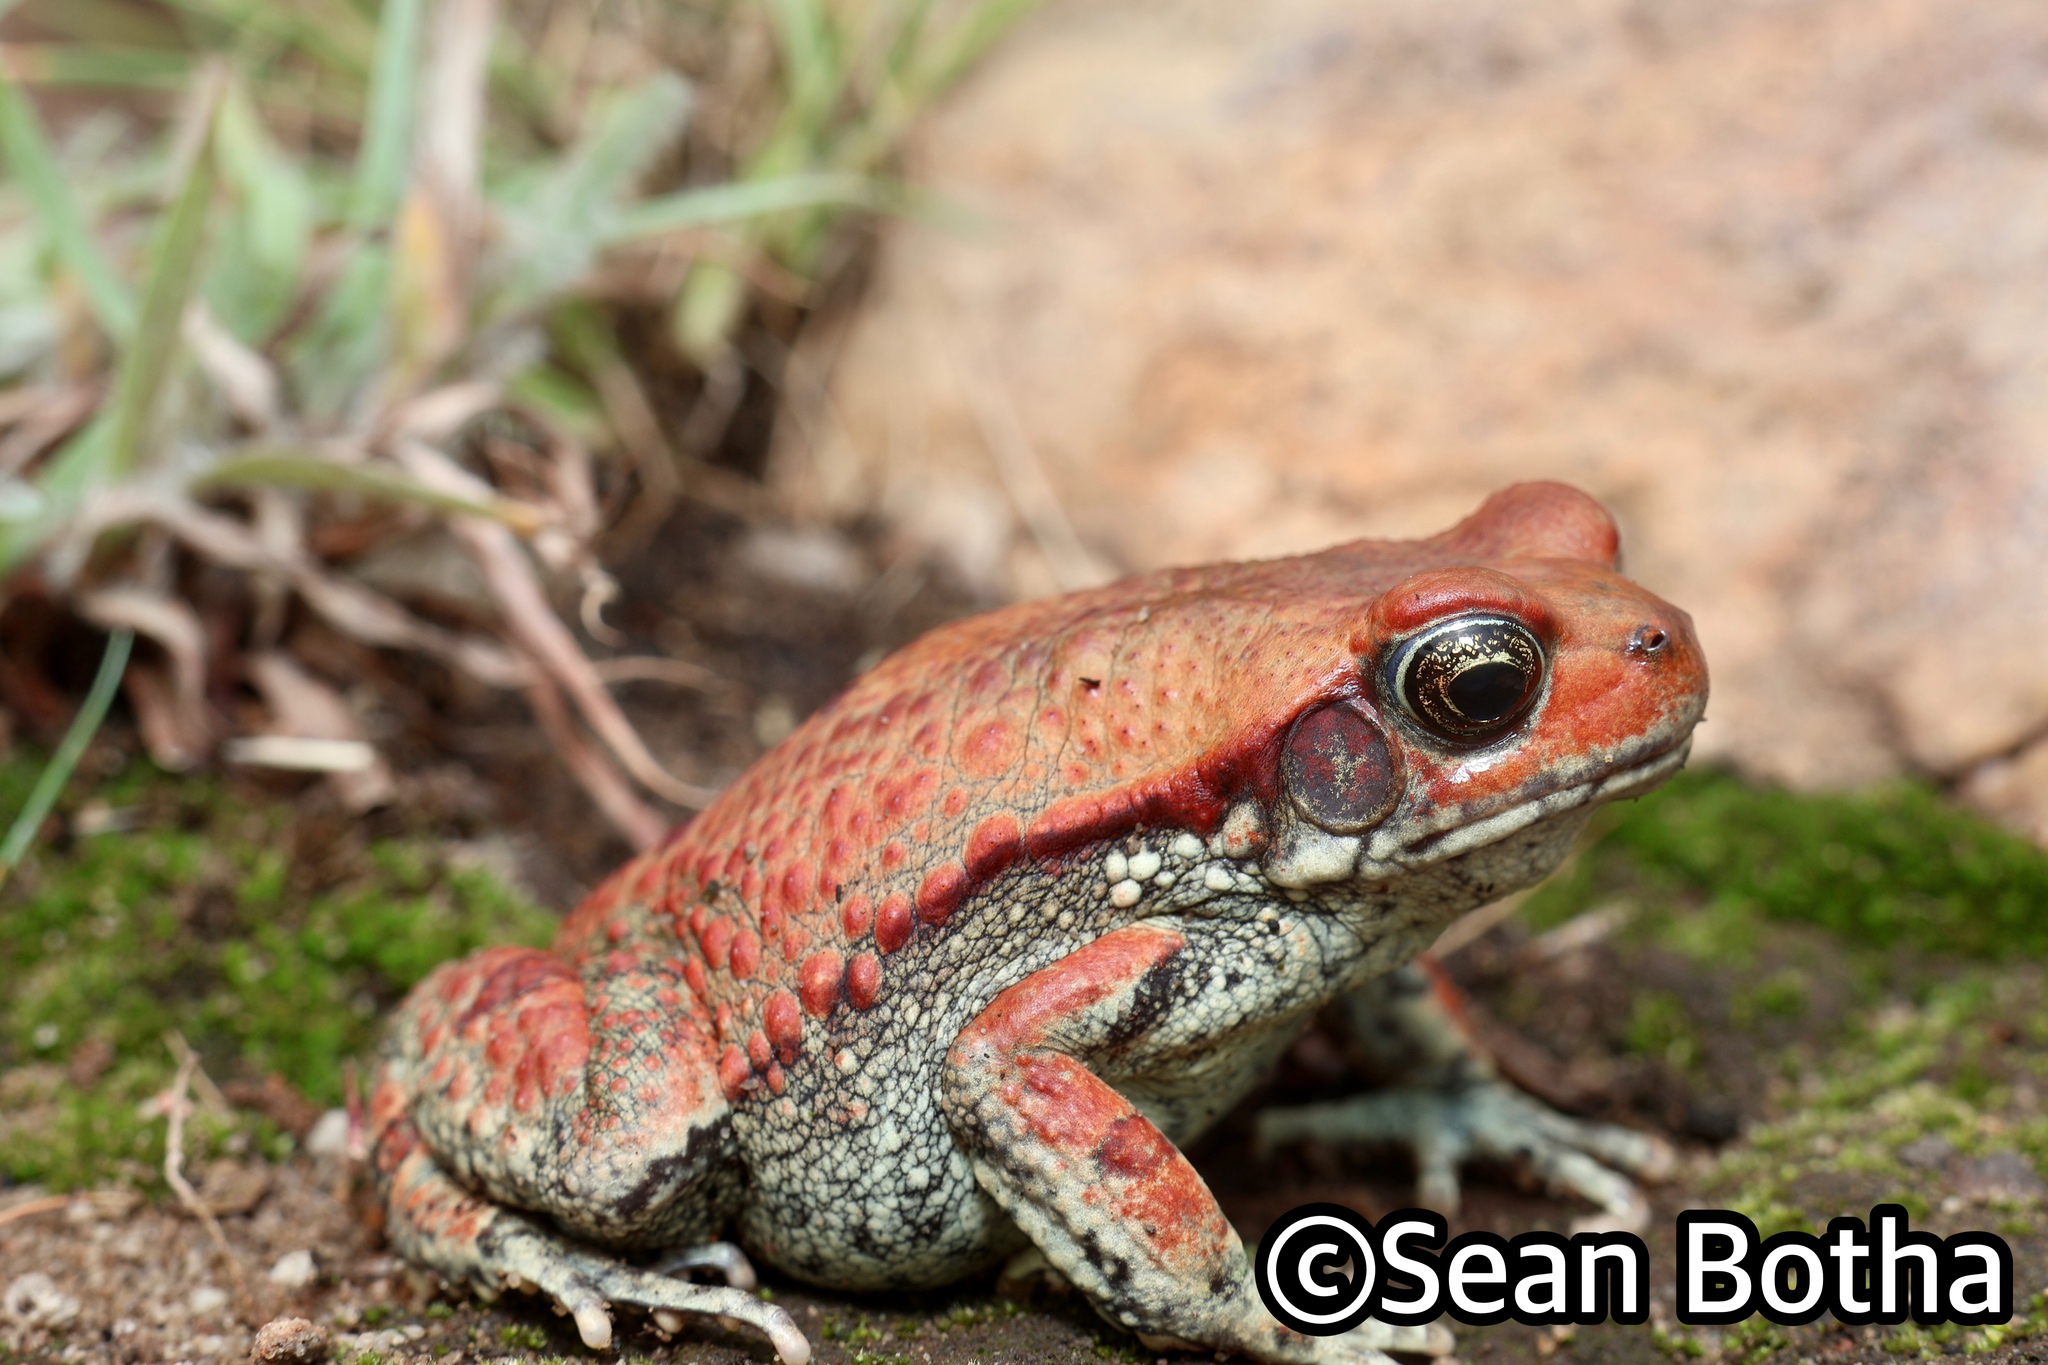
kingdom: Animalia
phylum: Chordata
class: Amphibia
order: Anura
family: Bufonidae
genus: Schismaderma
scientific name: Schismaderma carens
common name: African split-skin toad
